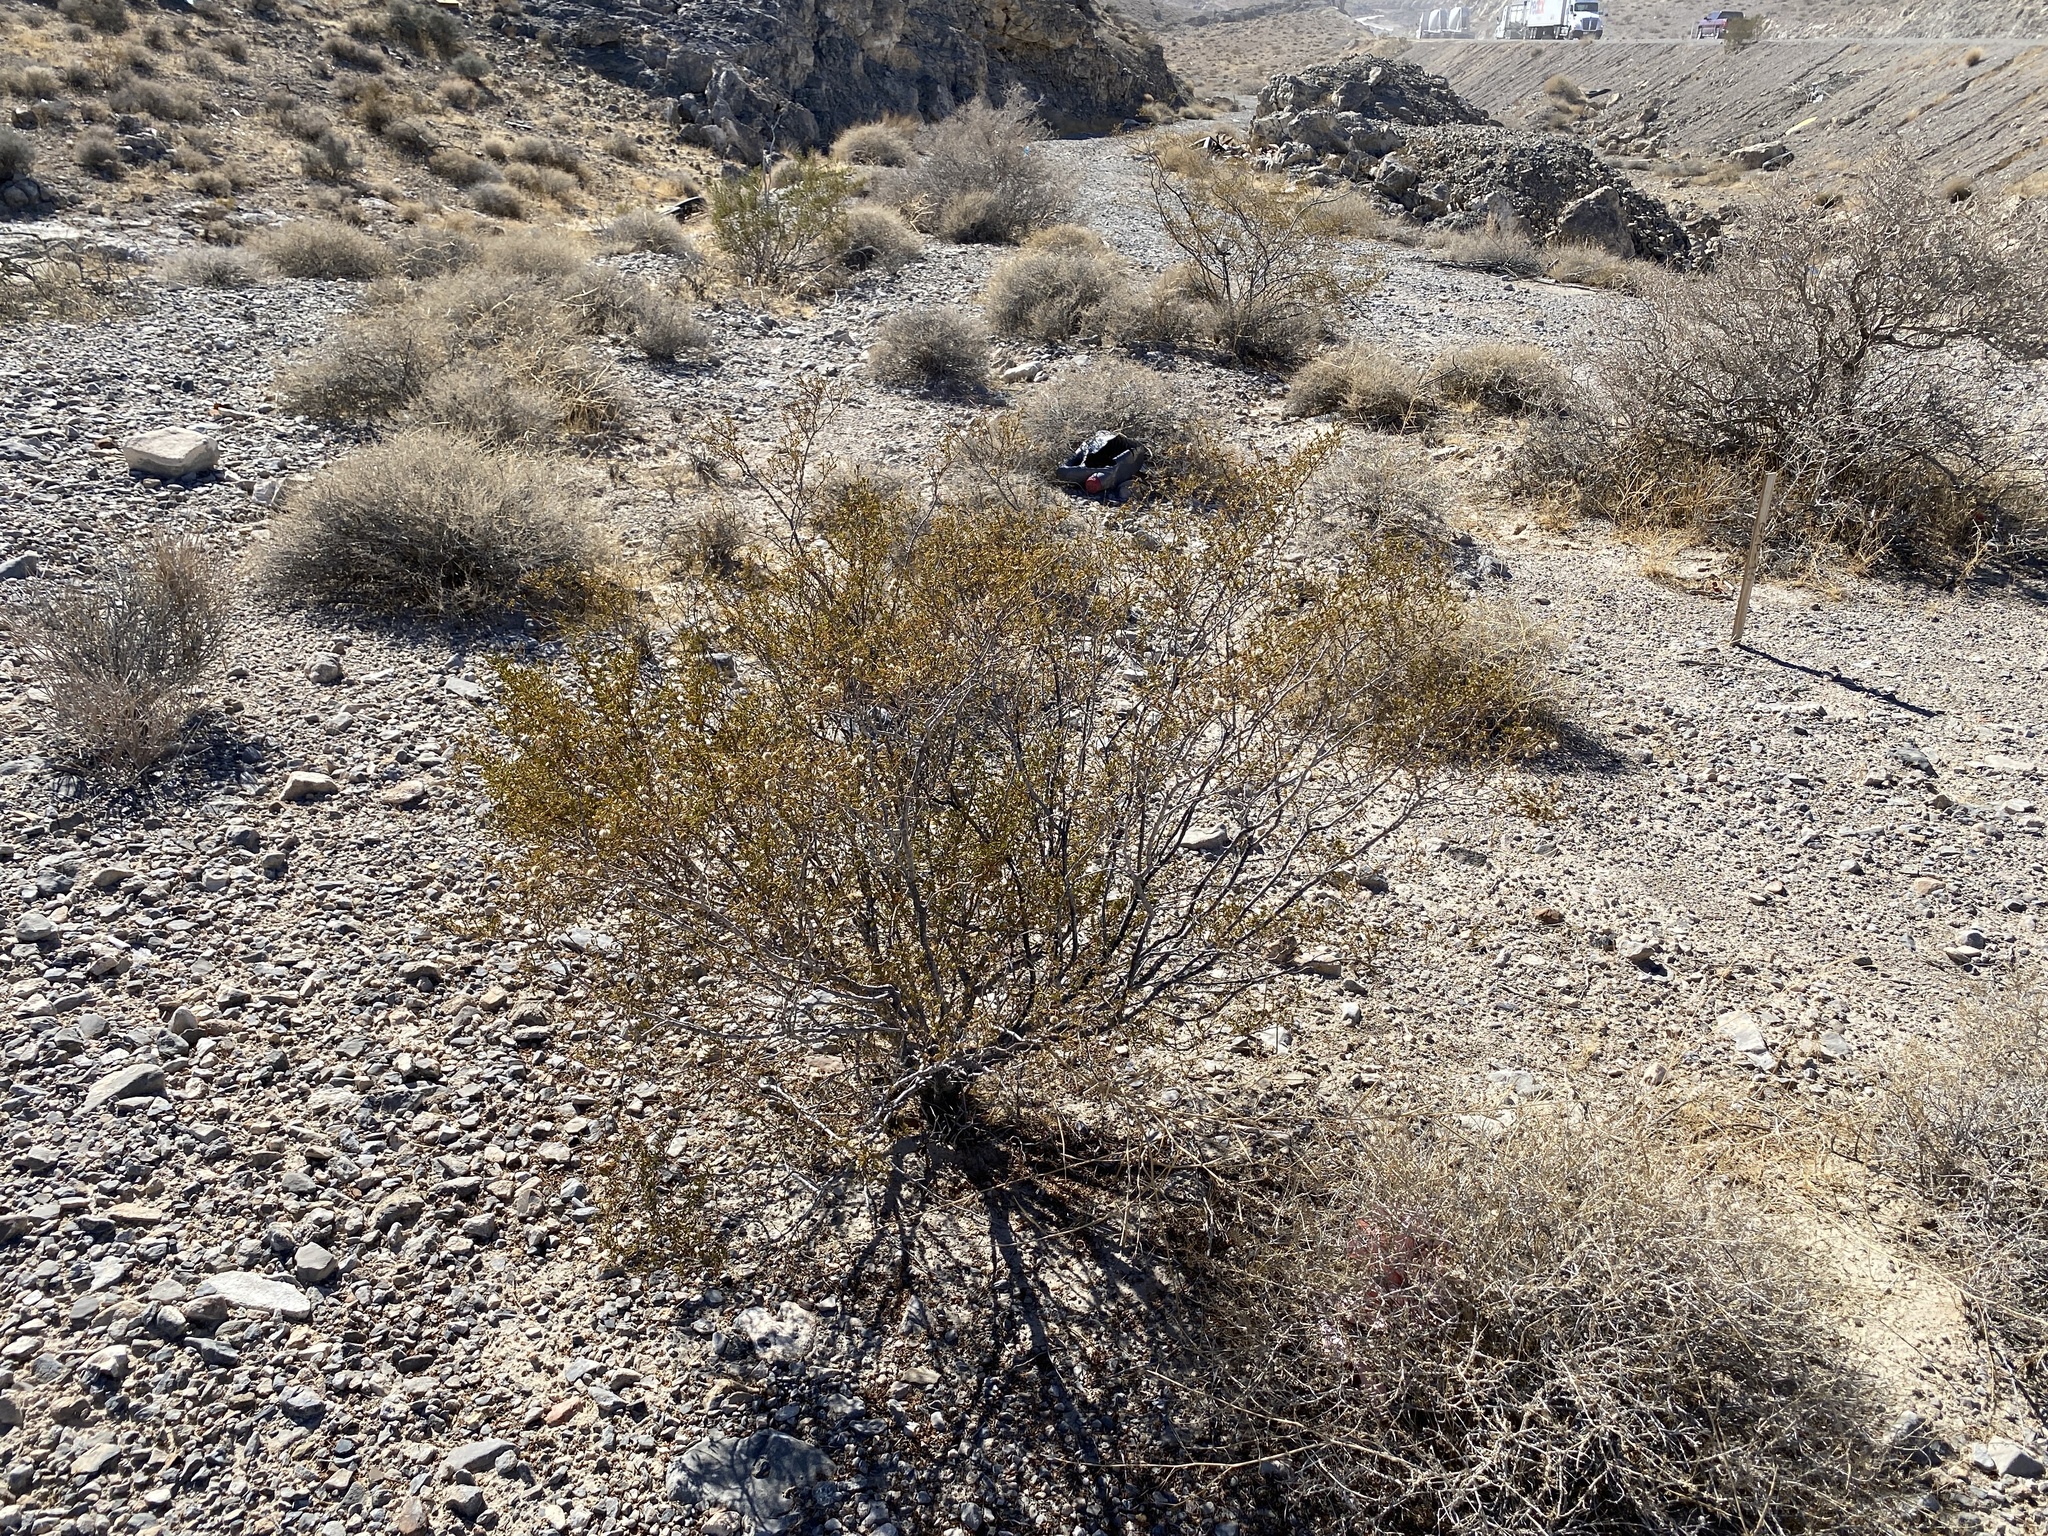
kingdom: Plantae
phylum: Tracheophyta
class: Magnoliopsida
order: Zygophyllales
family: Zygophyllaceae
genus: Larrea
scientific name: Larrea tridentata
